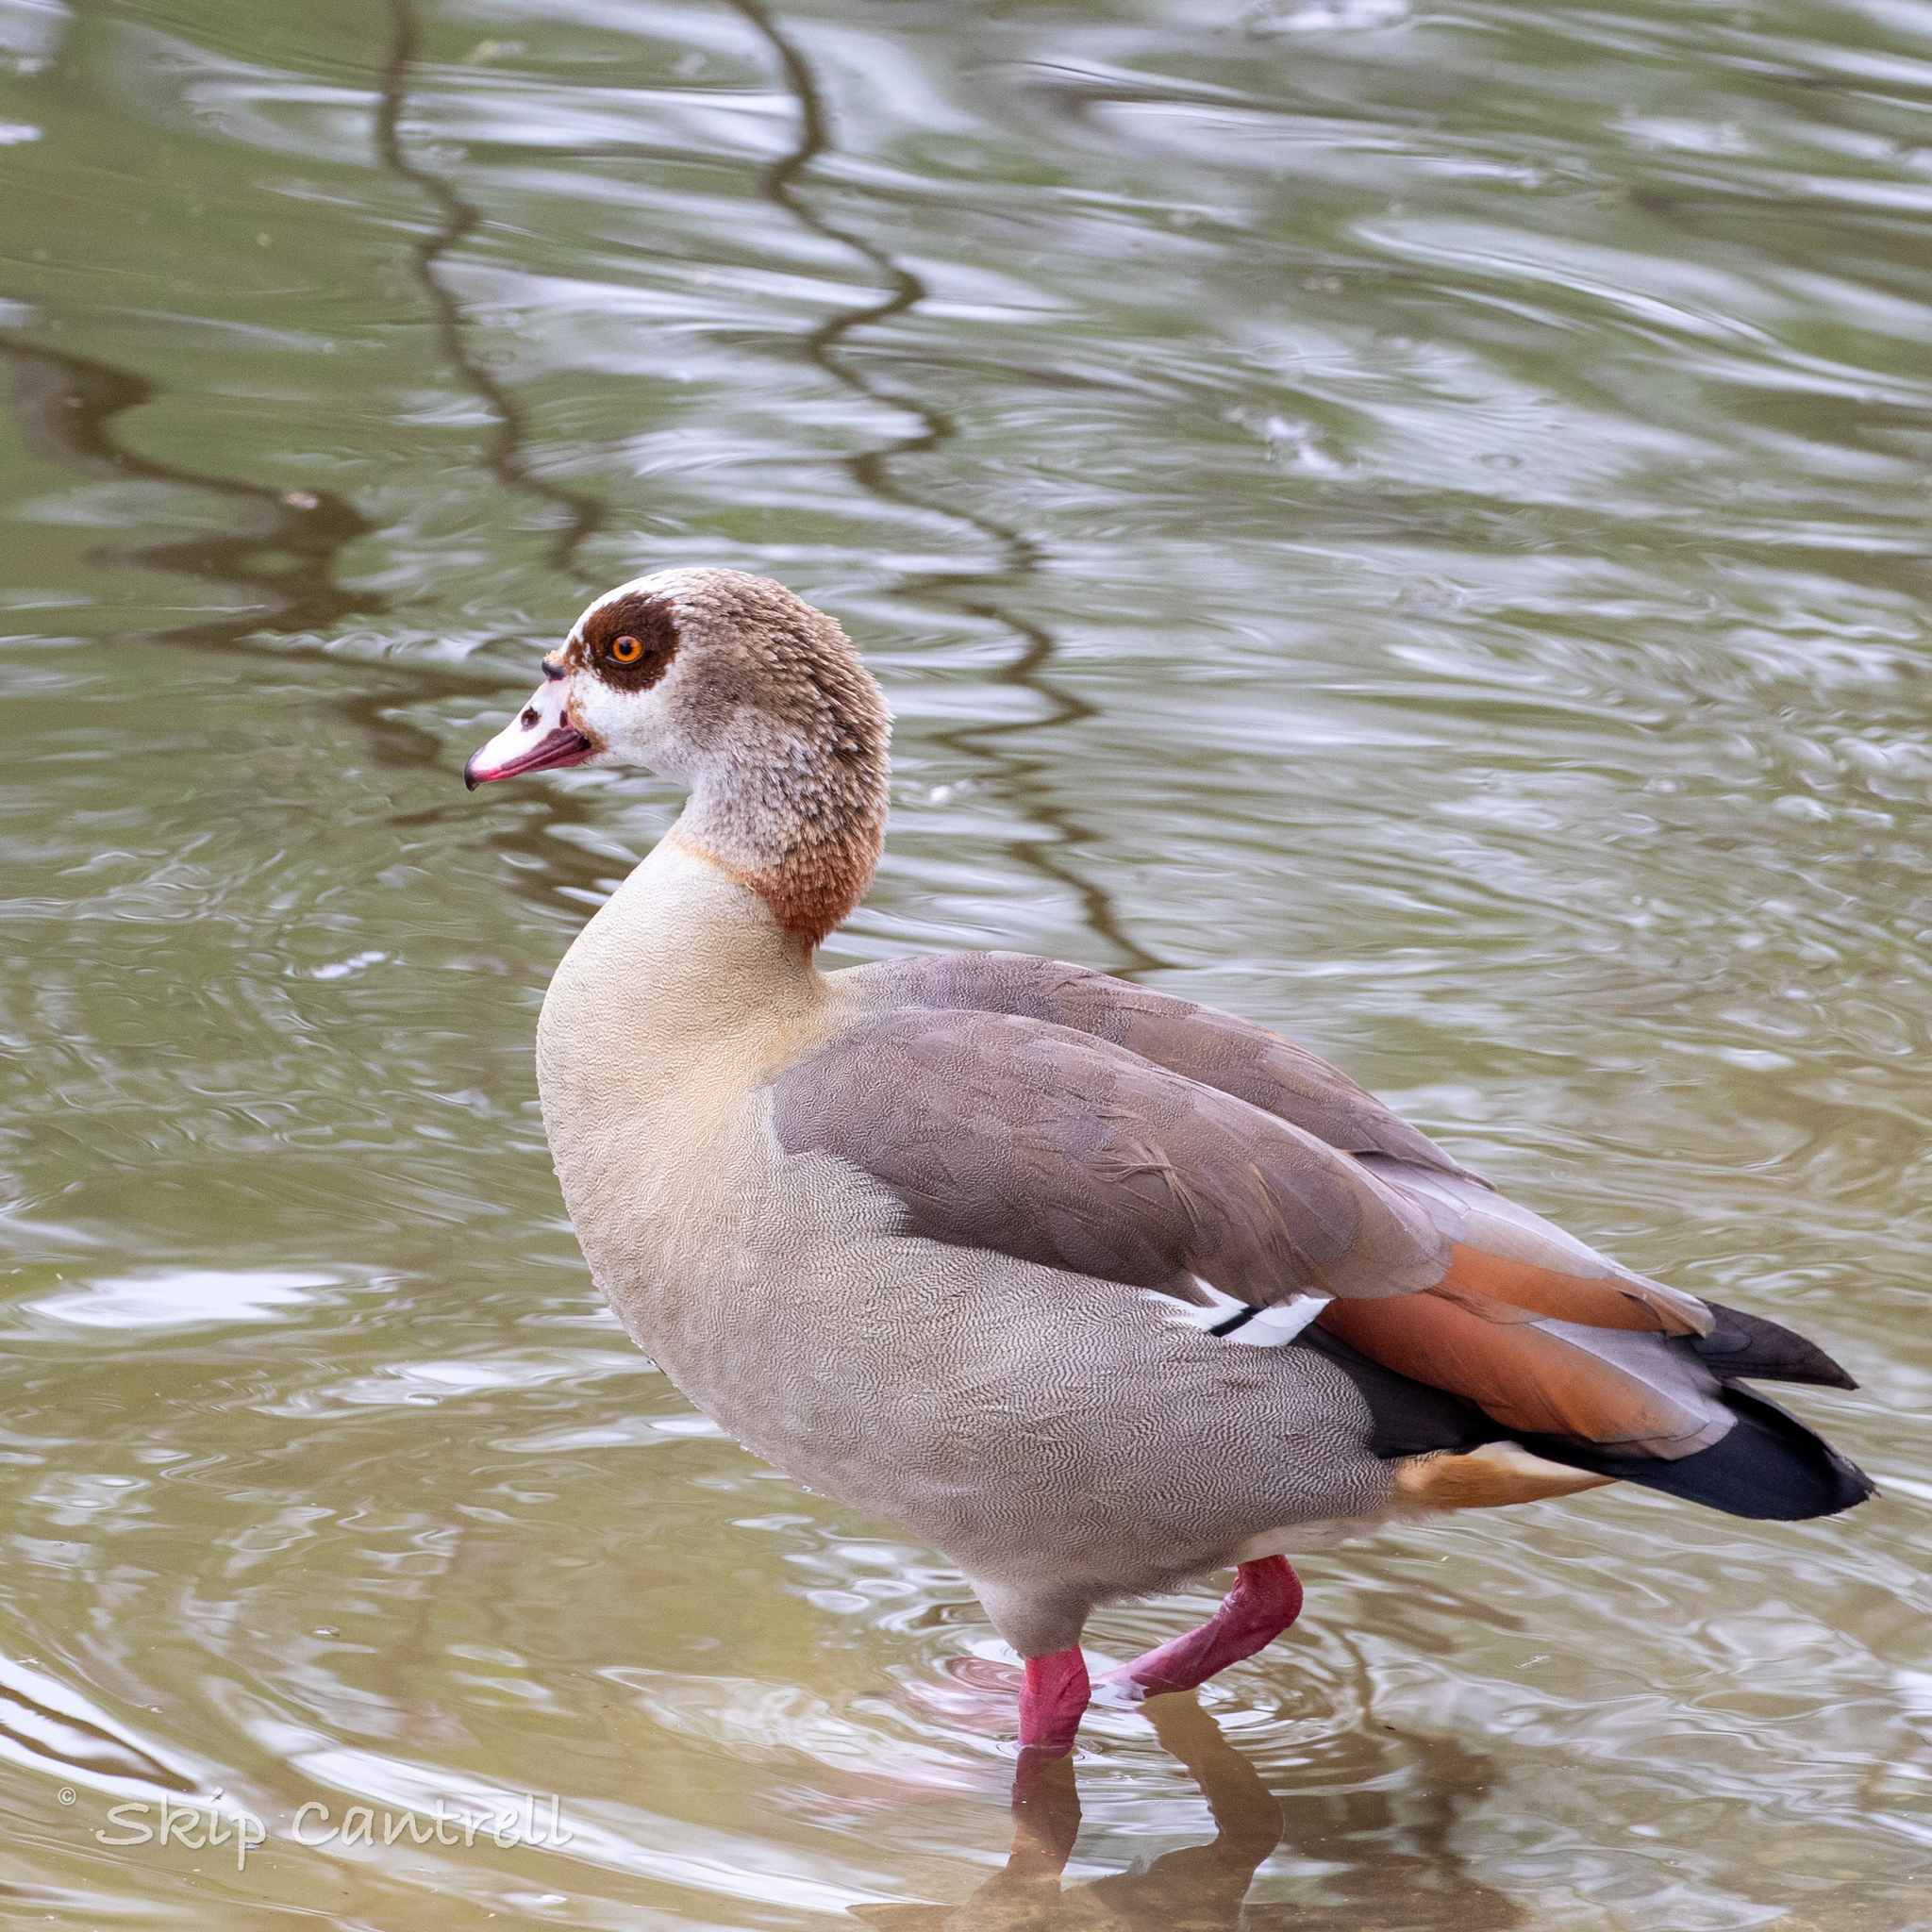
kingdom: Animalia
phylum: Chordata
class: Aves
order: Anseriformes
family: Anatidae
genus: Alopochen
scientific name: Alopochen aegyptiaca
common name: Egyptian goose
